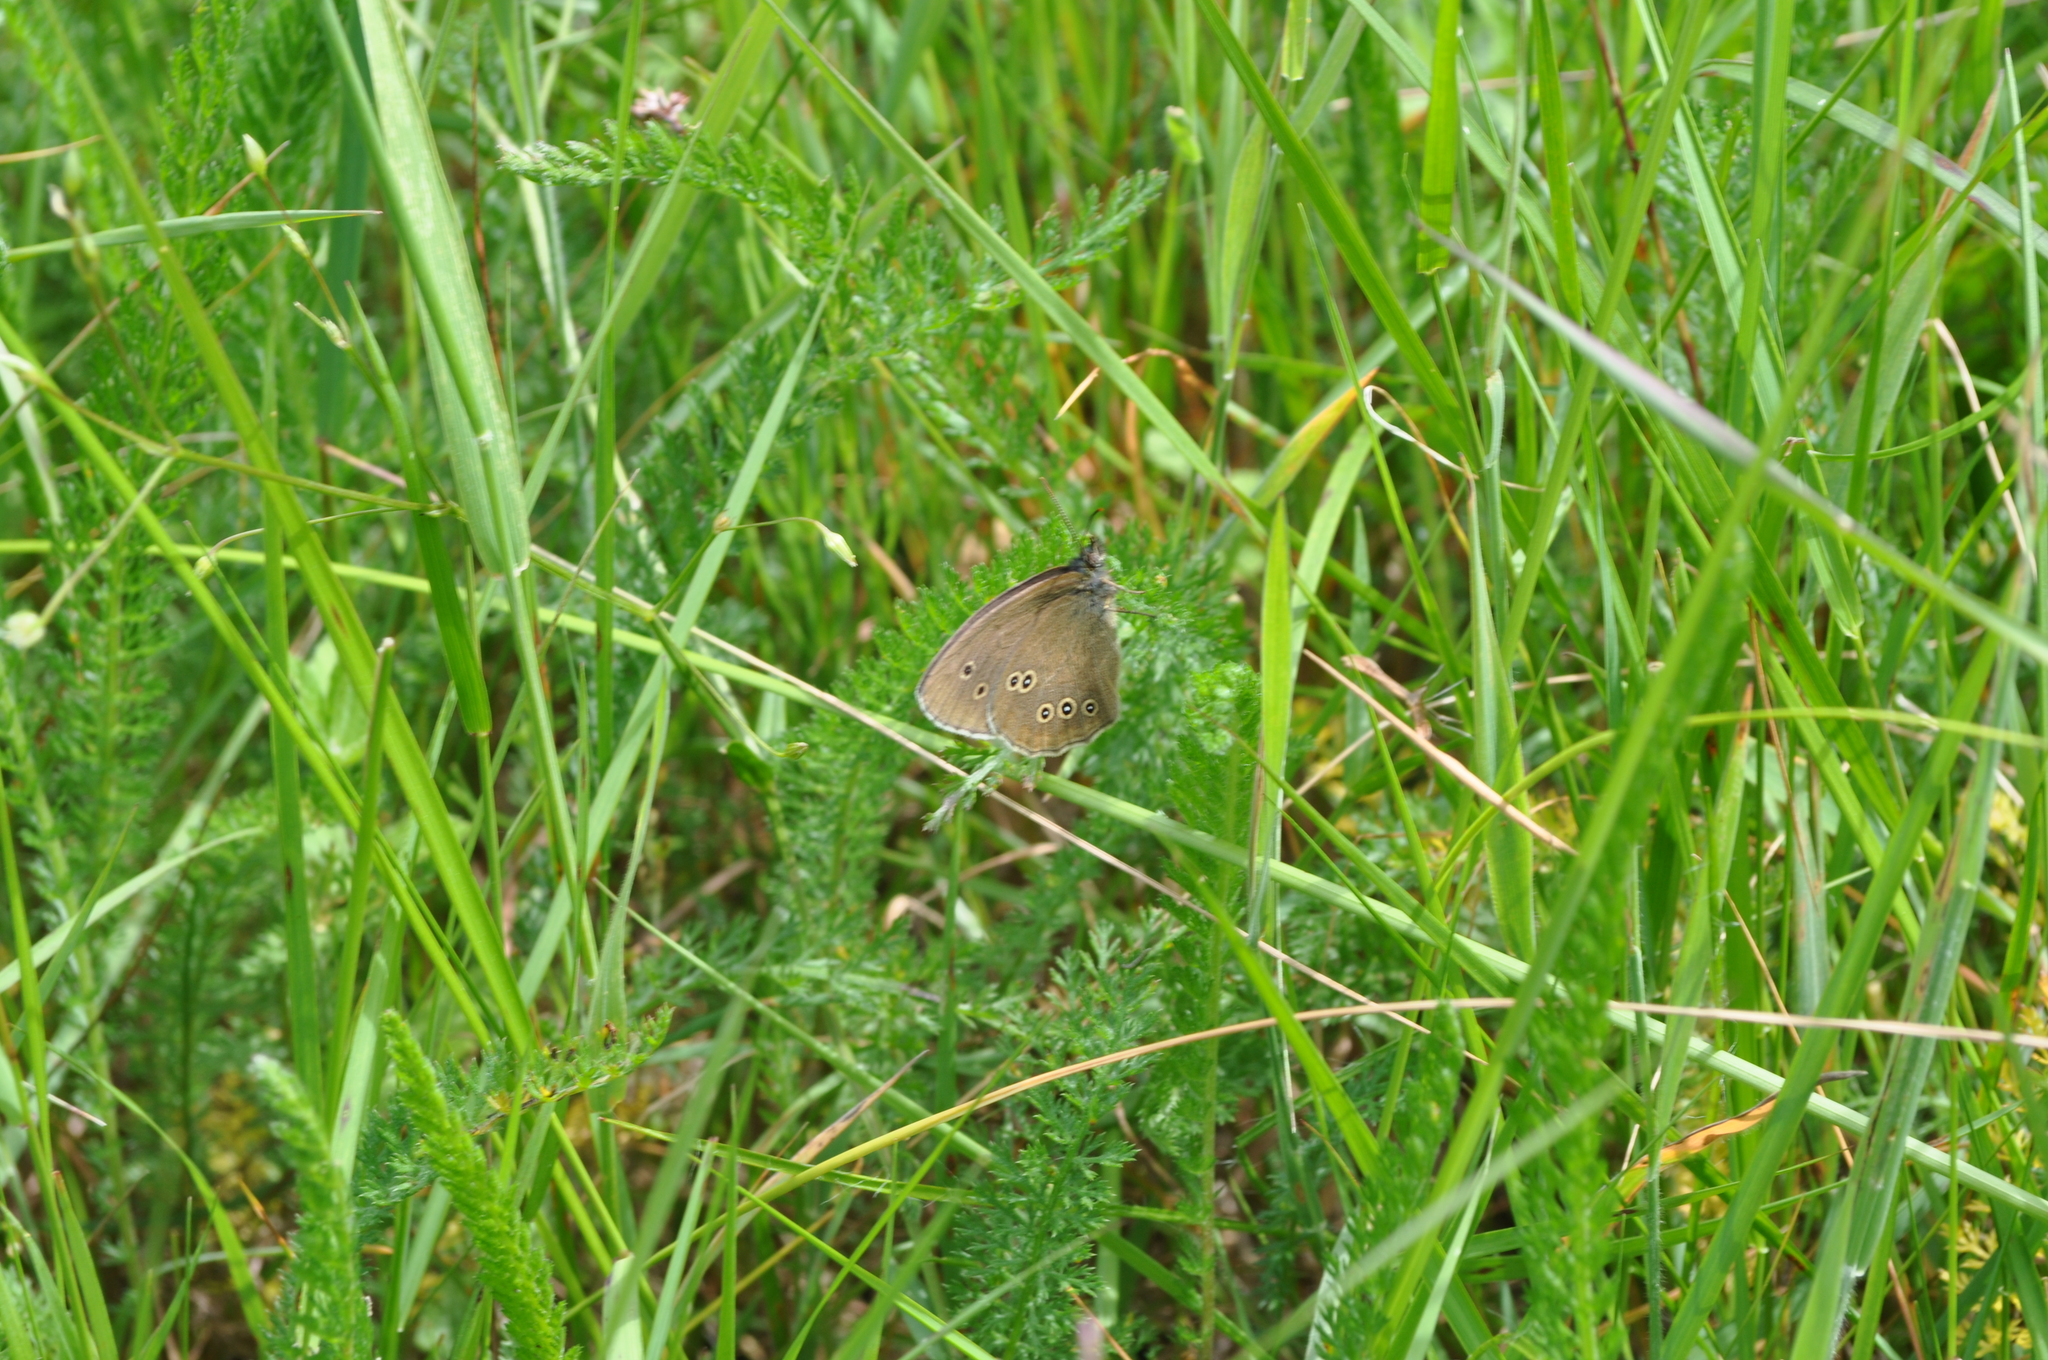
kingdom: Animalia
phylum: Arthropoda
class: Insecta
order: Lepidoptera
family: Nymphalidae
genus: Aphantopus
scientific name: Aphantopus hyperantus
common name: Ringlet
